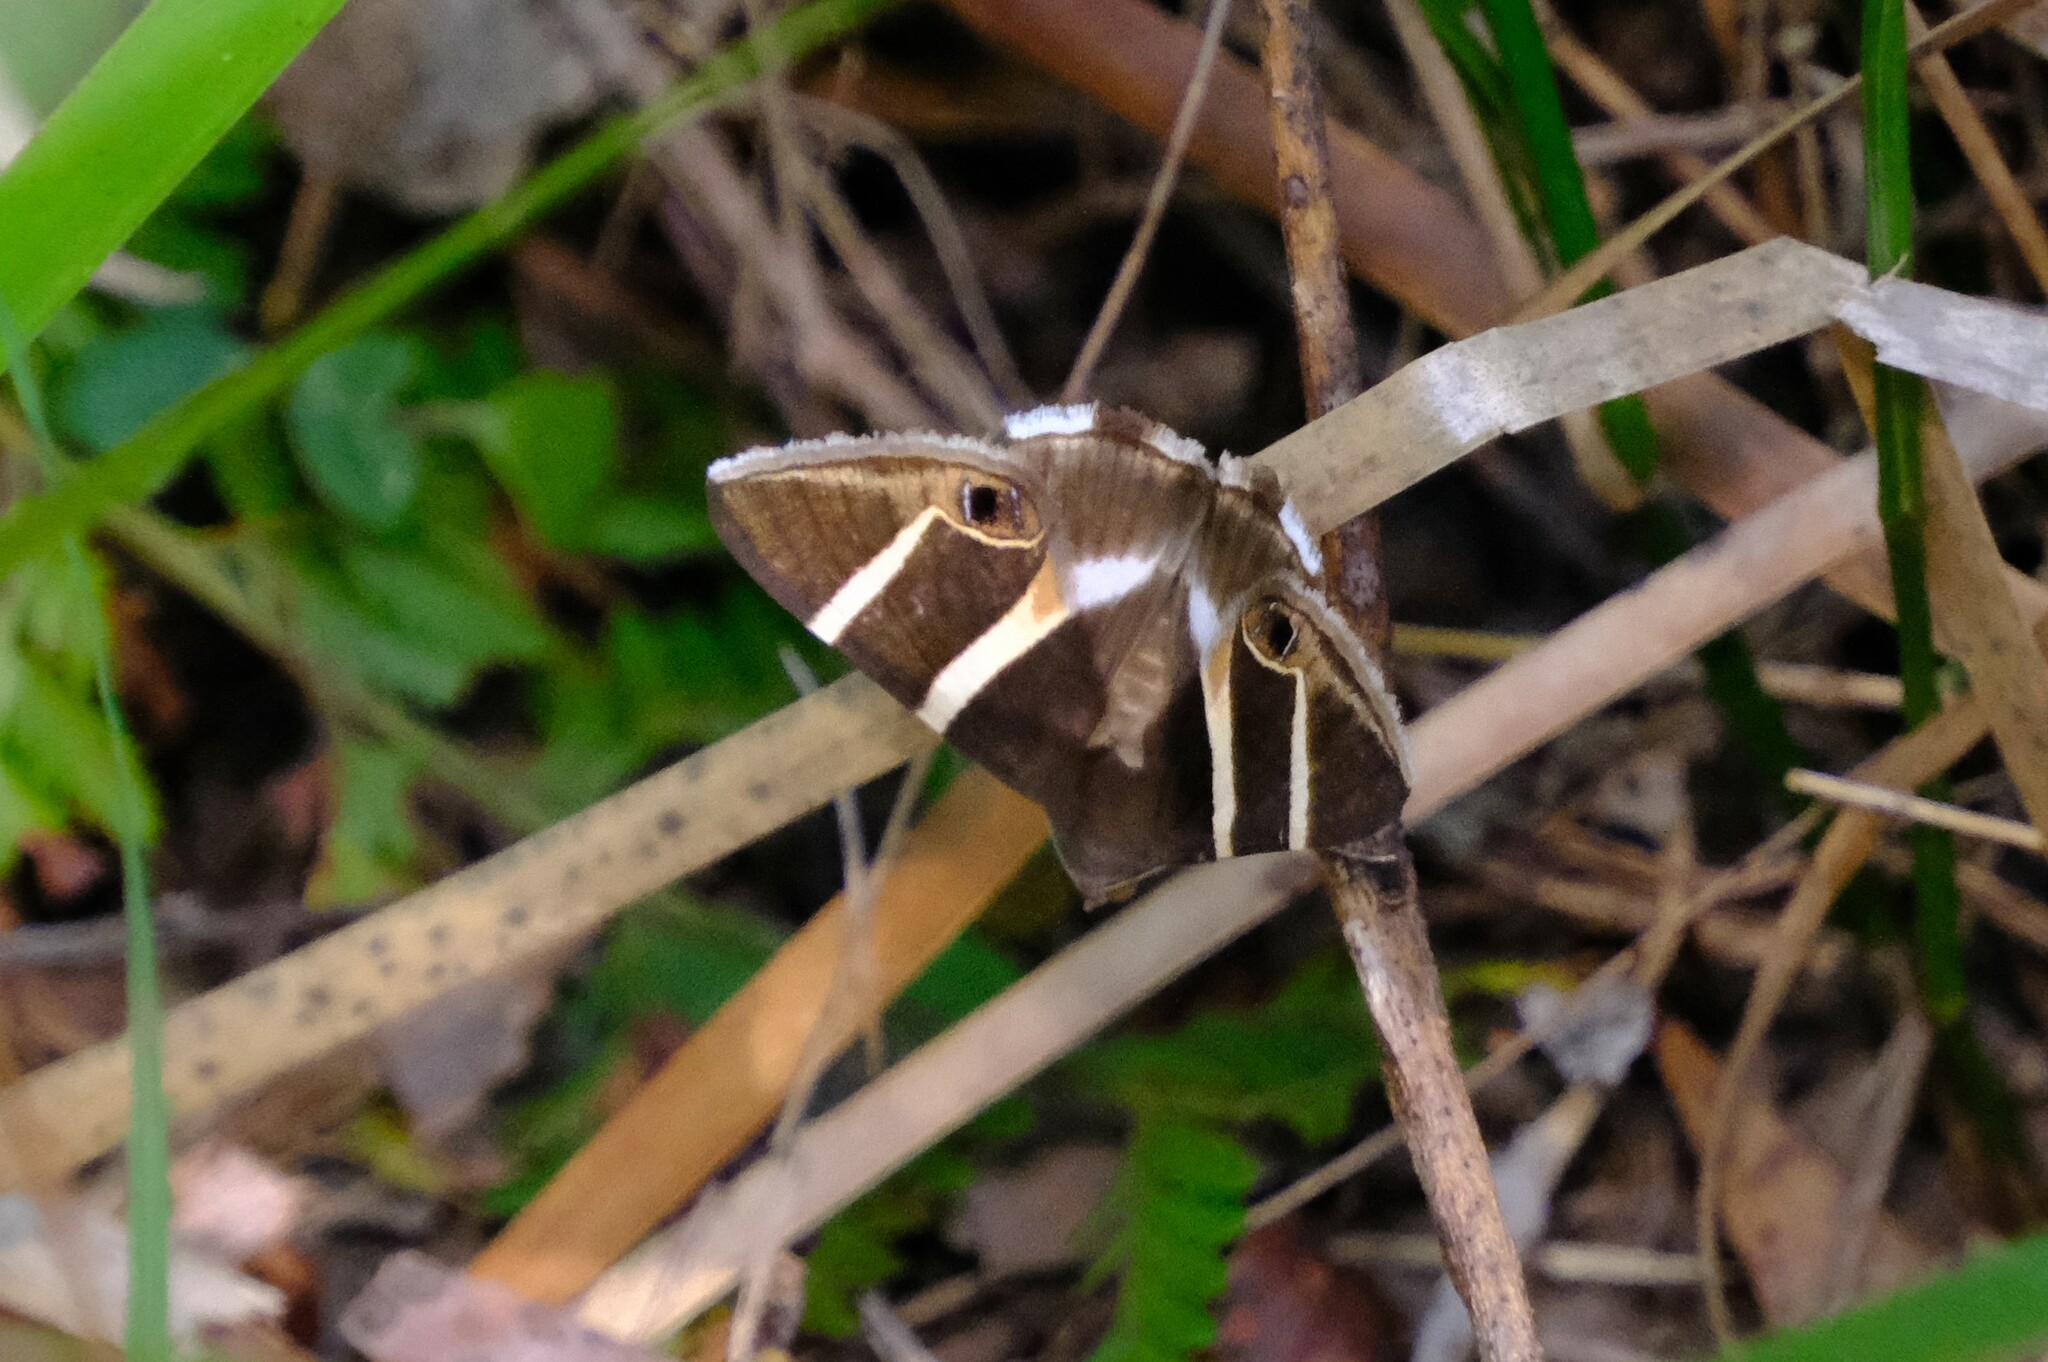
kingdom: Animalia
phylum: Arthropoda
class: Insecta
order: Lepidoptera
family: Erebidae
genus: Grammodes
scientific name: Grammodes oculicola
